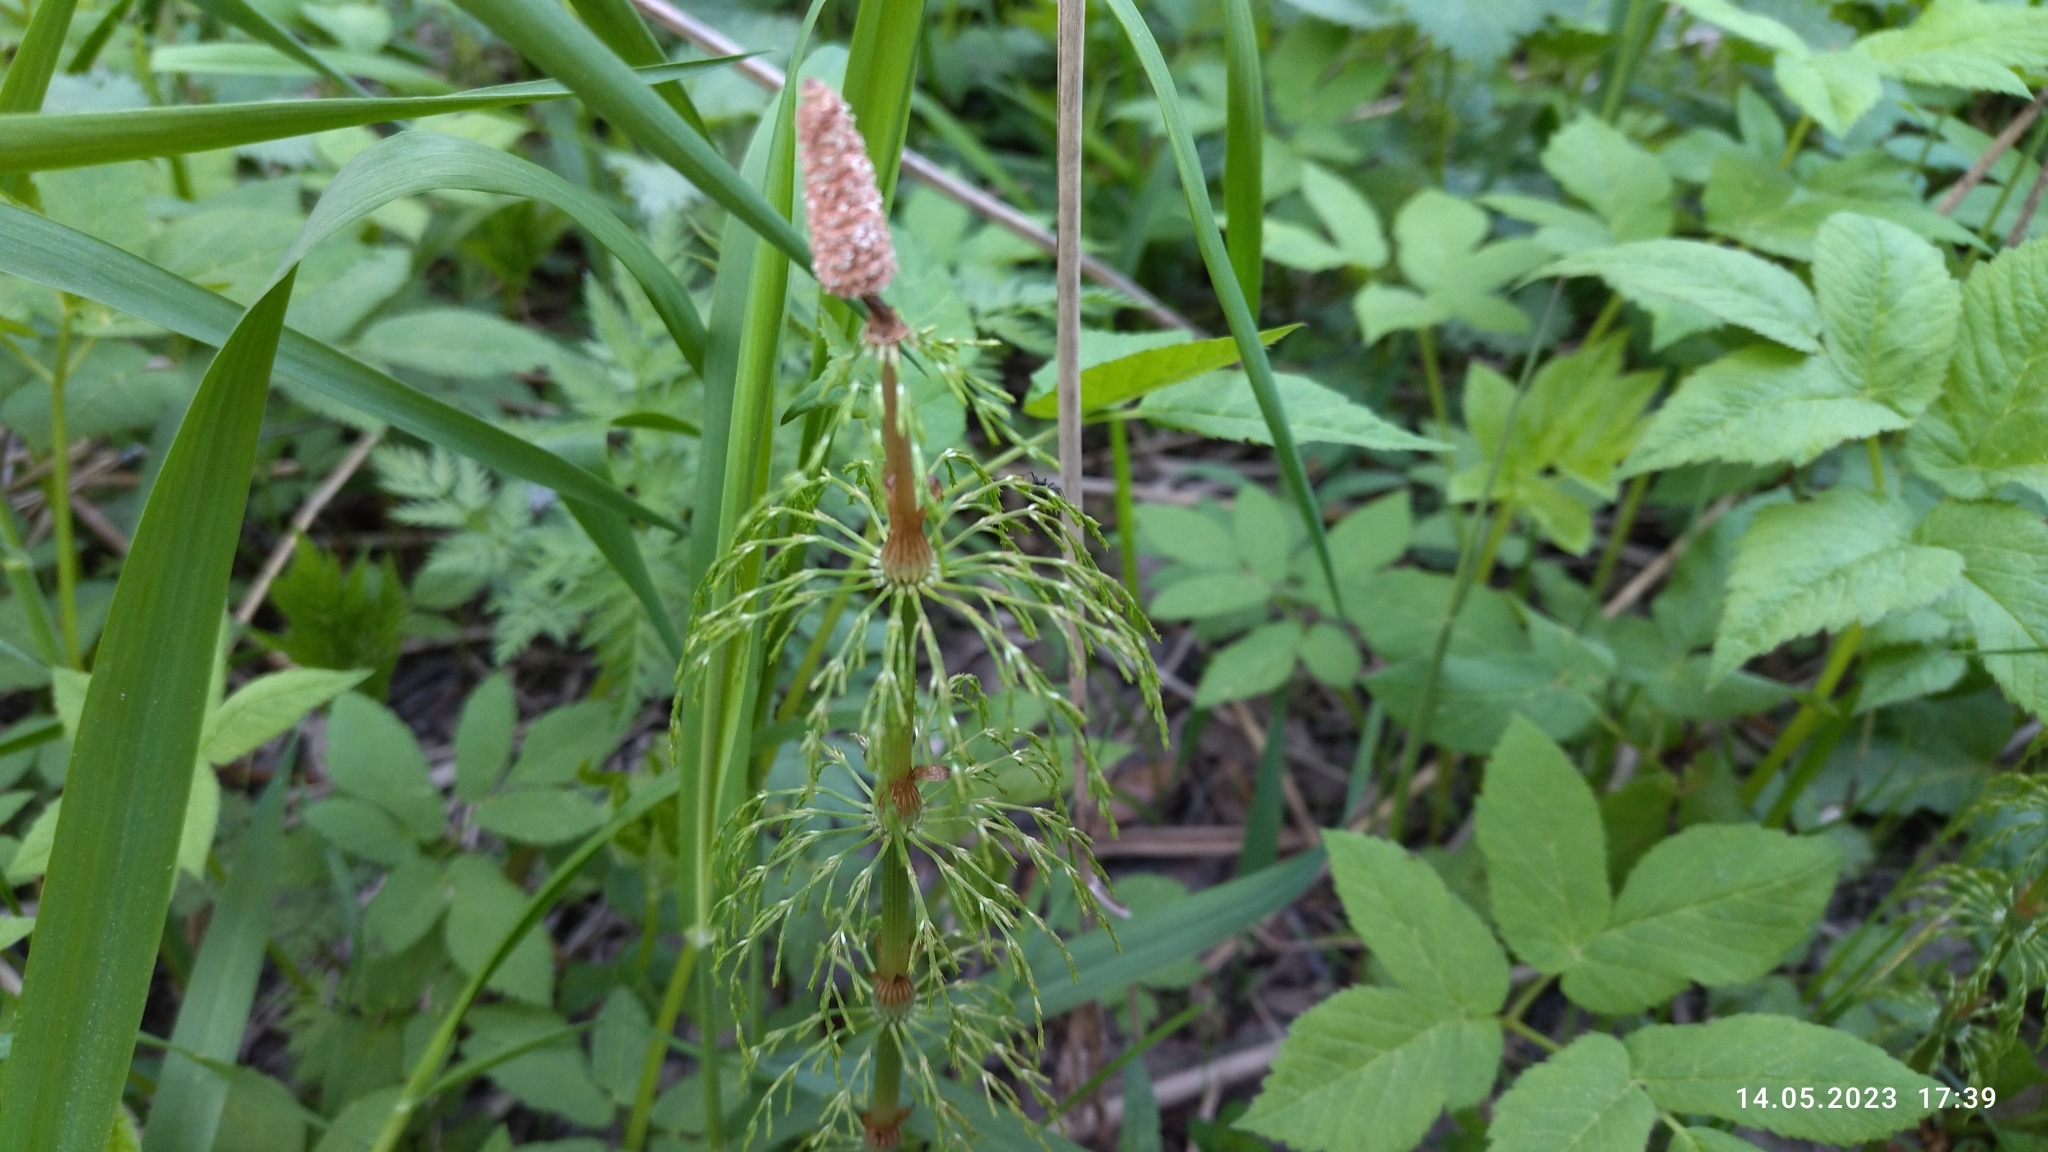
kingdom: Plantae
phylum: Tracheophyta
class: Polypodiopsida
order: Equisetales
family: Equisetaceae
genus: Equisetum
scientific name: Equisetum sylvaticum
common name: Wood horsetail
